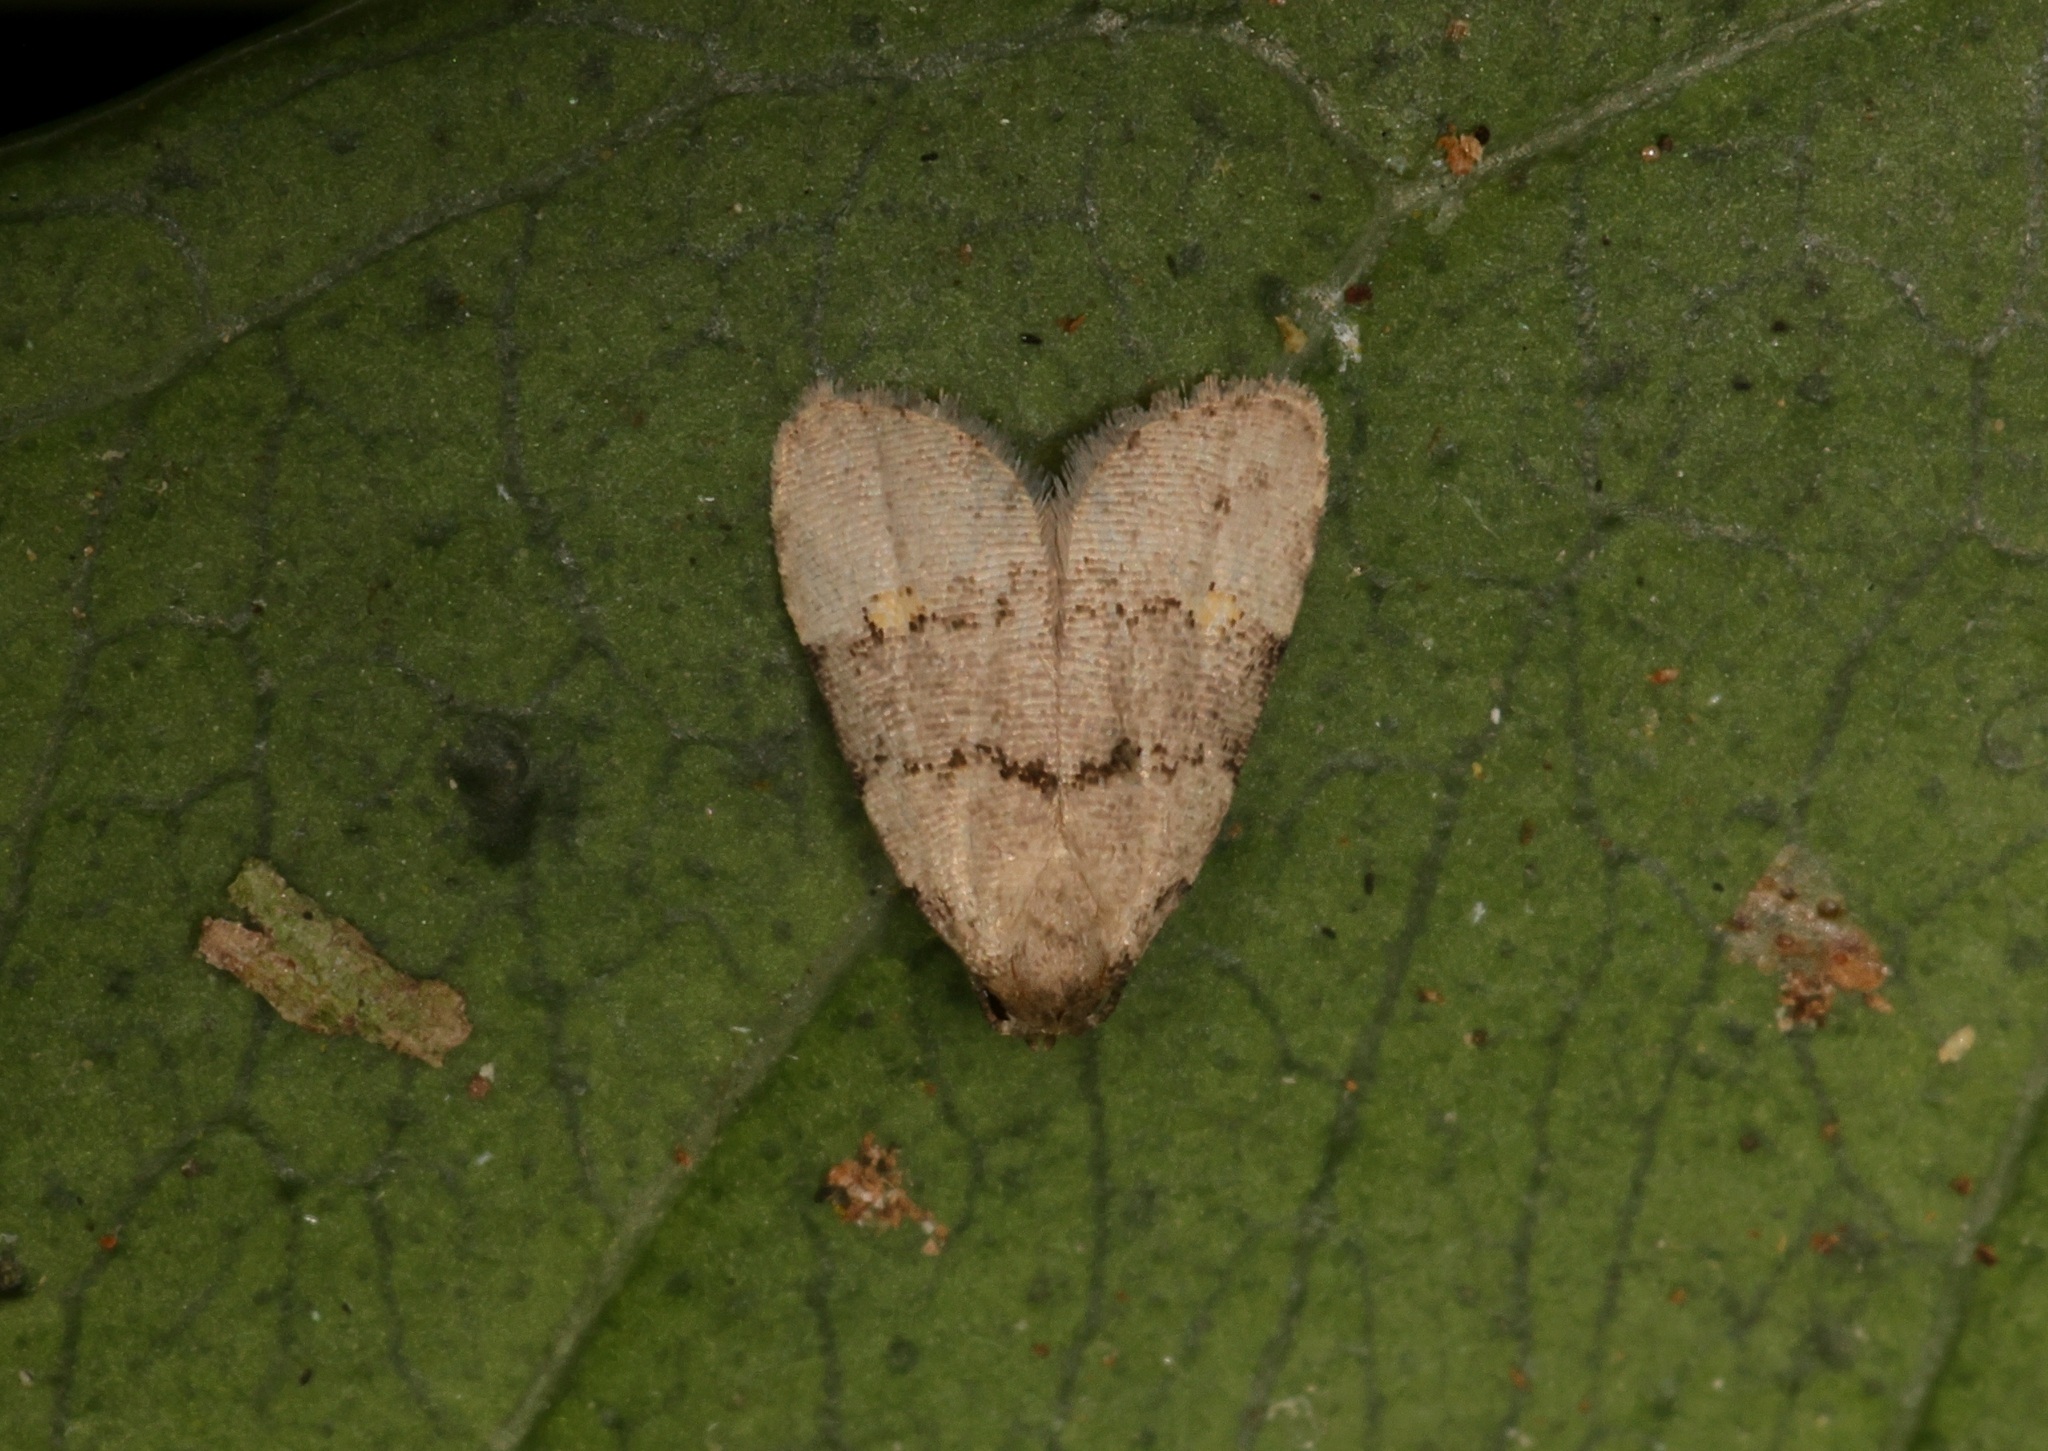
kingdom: Animalia
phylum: Arthropoda
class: Insecta
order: Lepidoptera
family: Erebidae
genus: Fustius
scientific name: Fustius sterlingi
